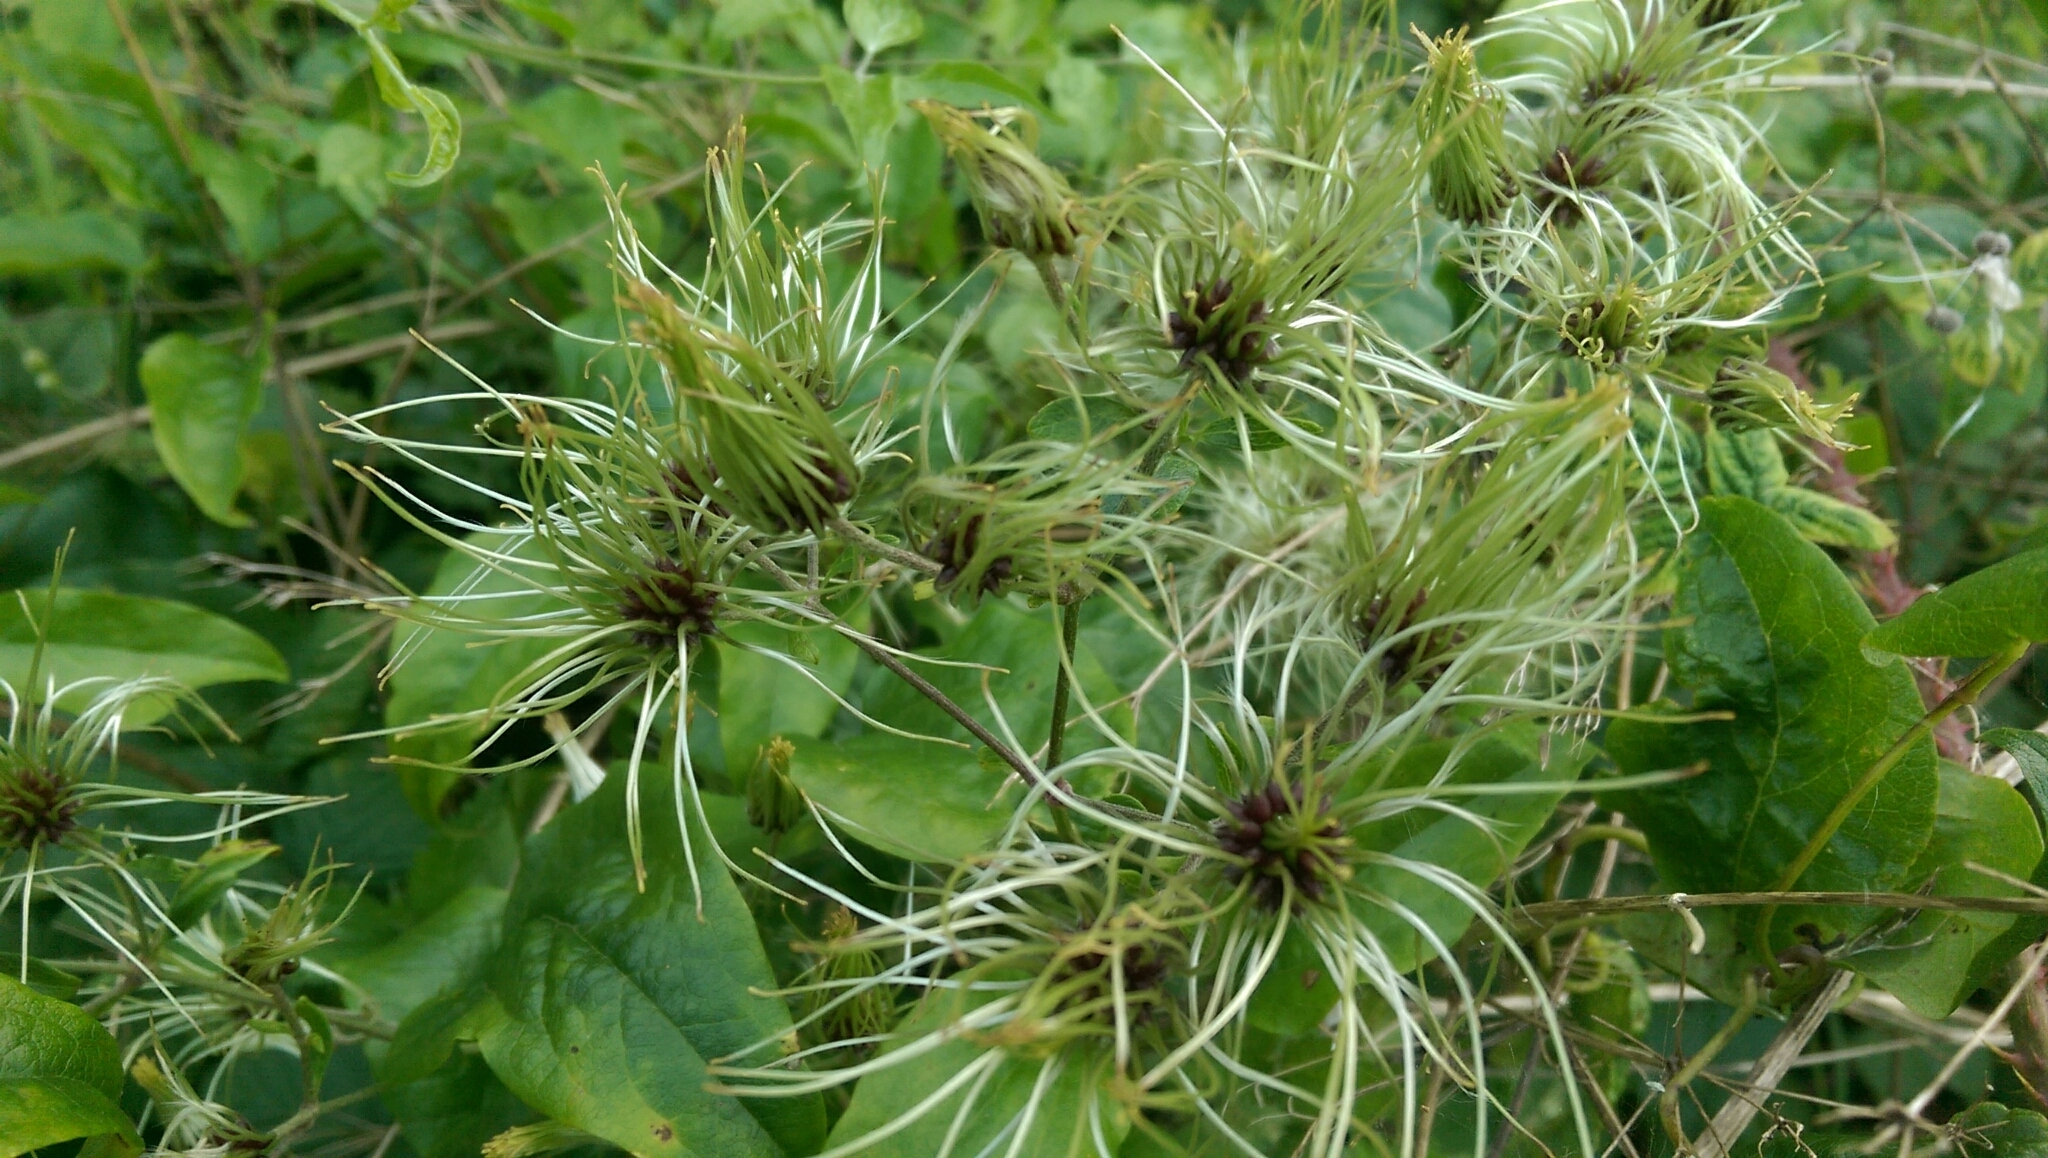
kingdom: Plantae
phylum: Tracheophyta
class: Magnoliopsida
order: Ranunculales
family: Ranunculaceae
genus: Clematis
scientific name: Clematis vitalba
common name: Evergreen clematis
